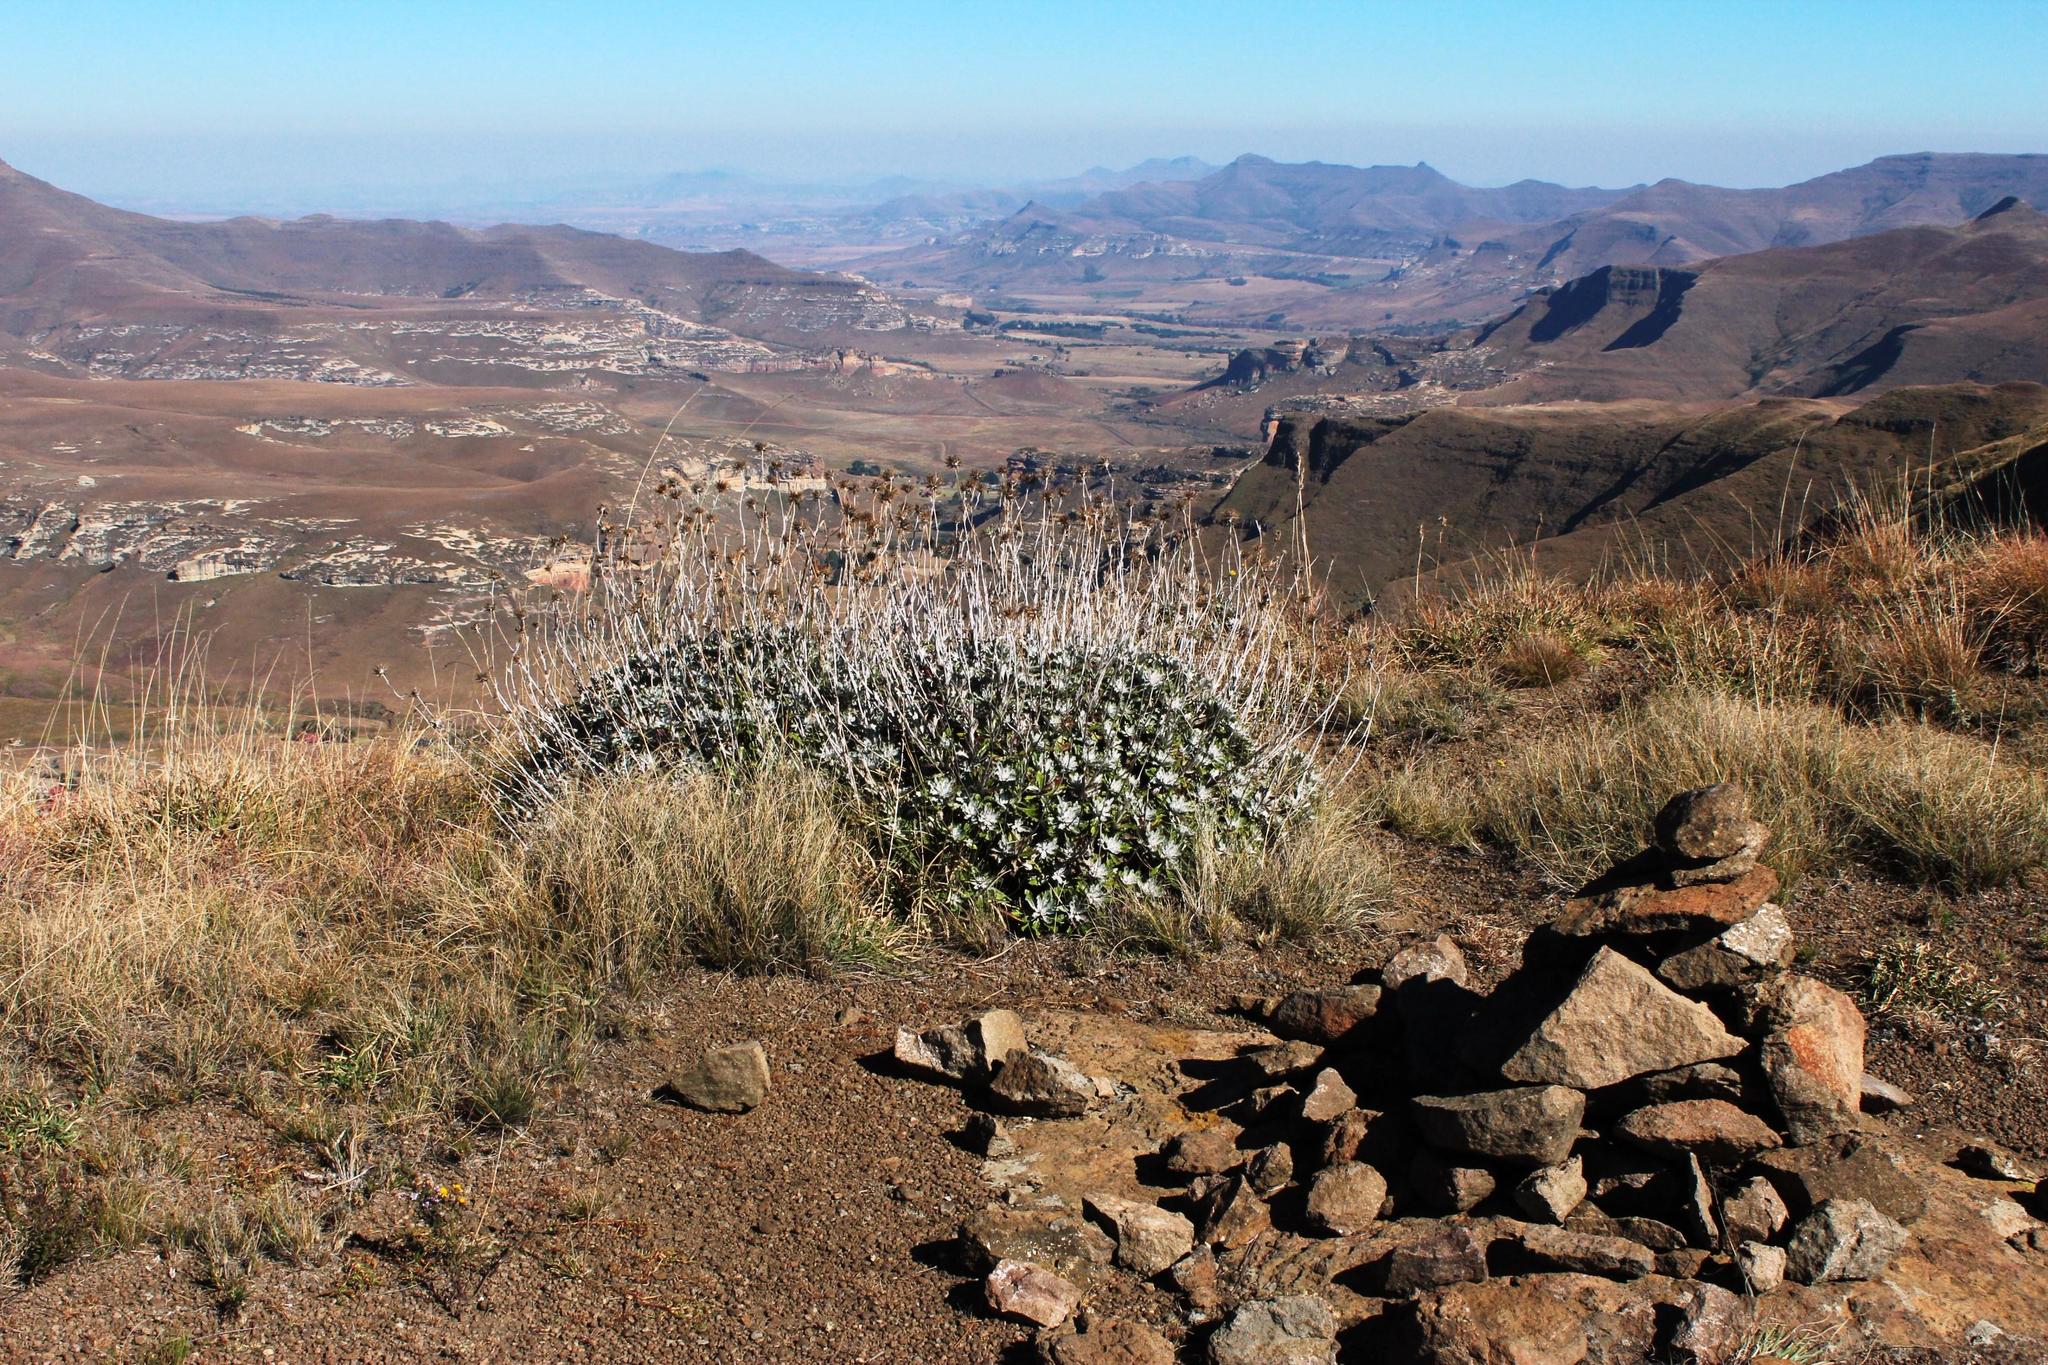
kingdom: Plantae
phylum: Tracheophyta
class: Magnoliopsida
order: Asterales
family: Asteraceae
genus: Berkheya
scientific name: Berkheya rosulata
